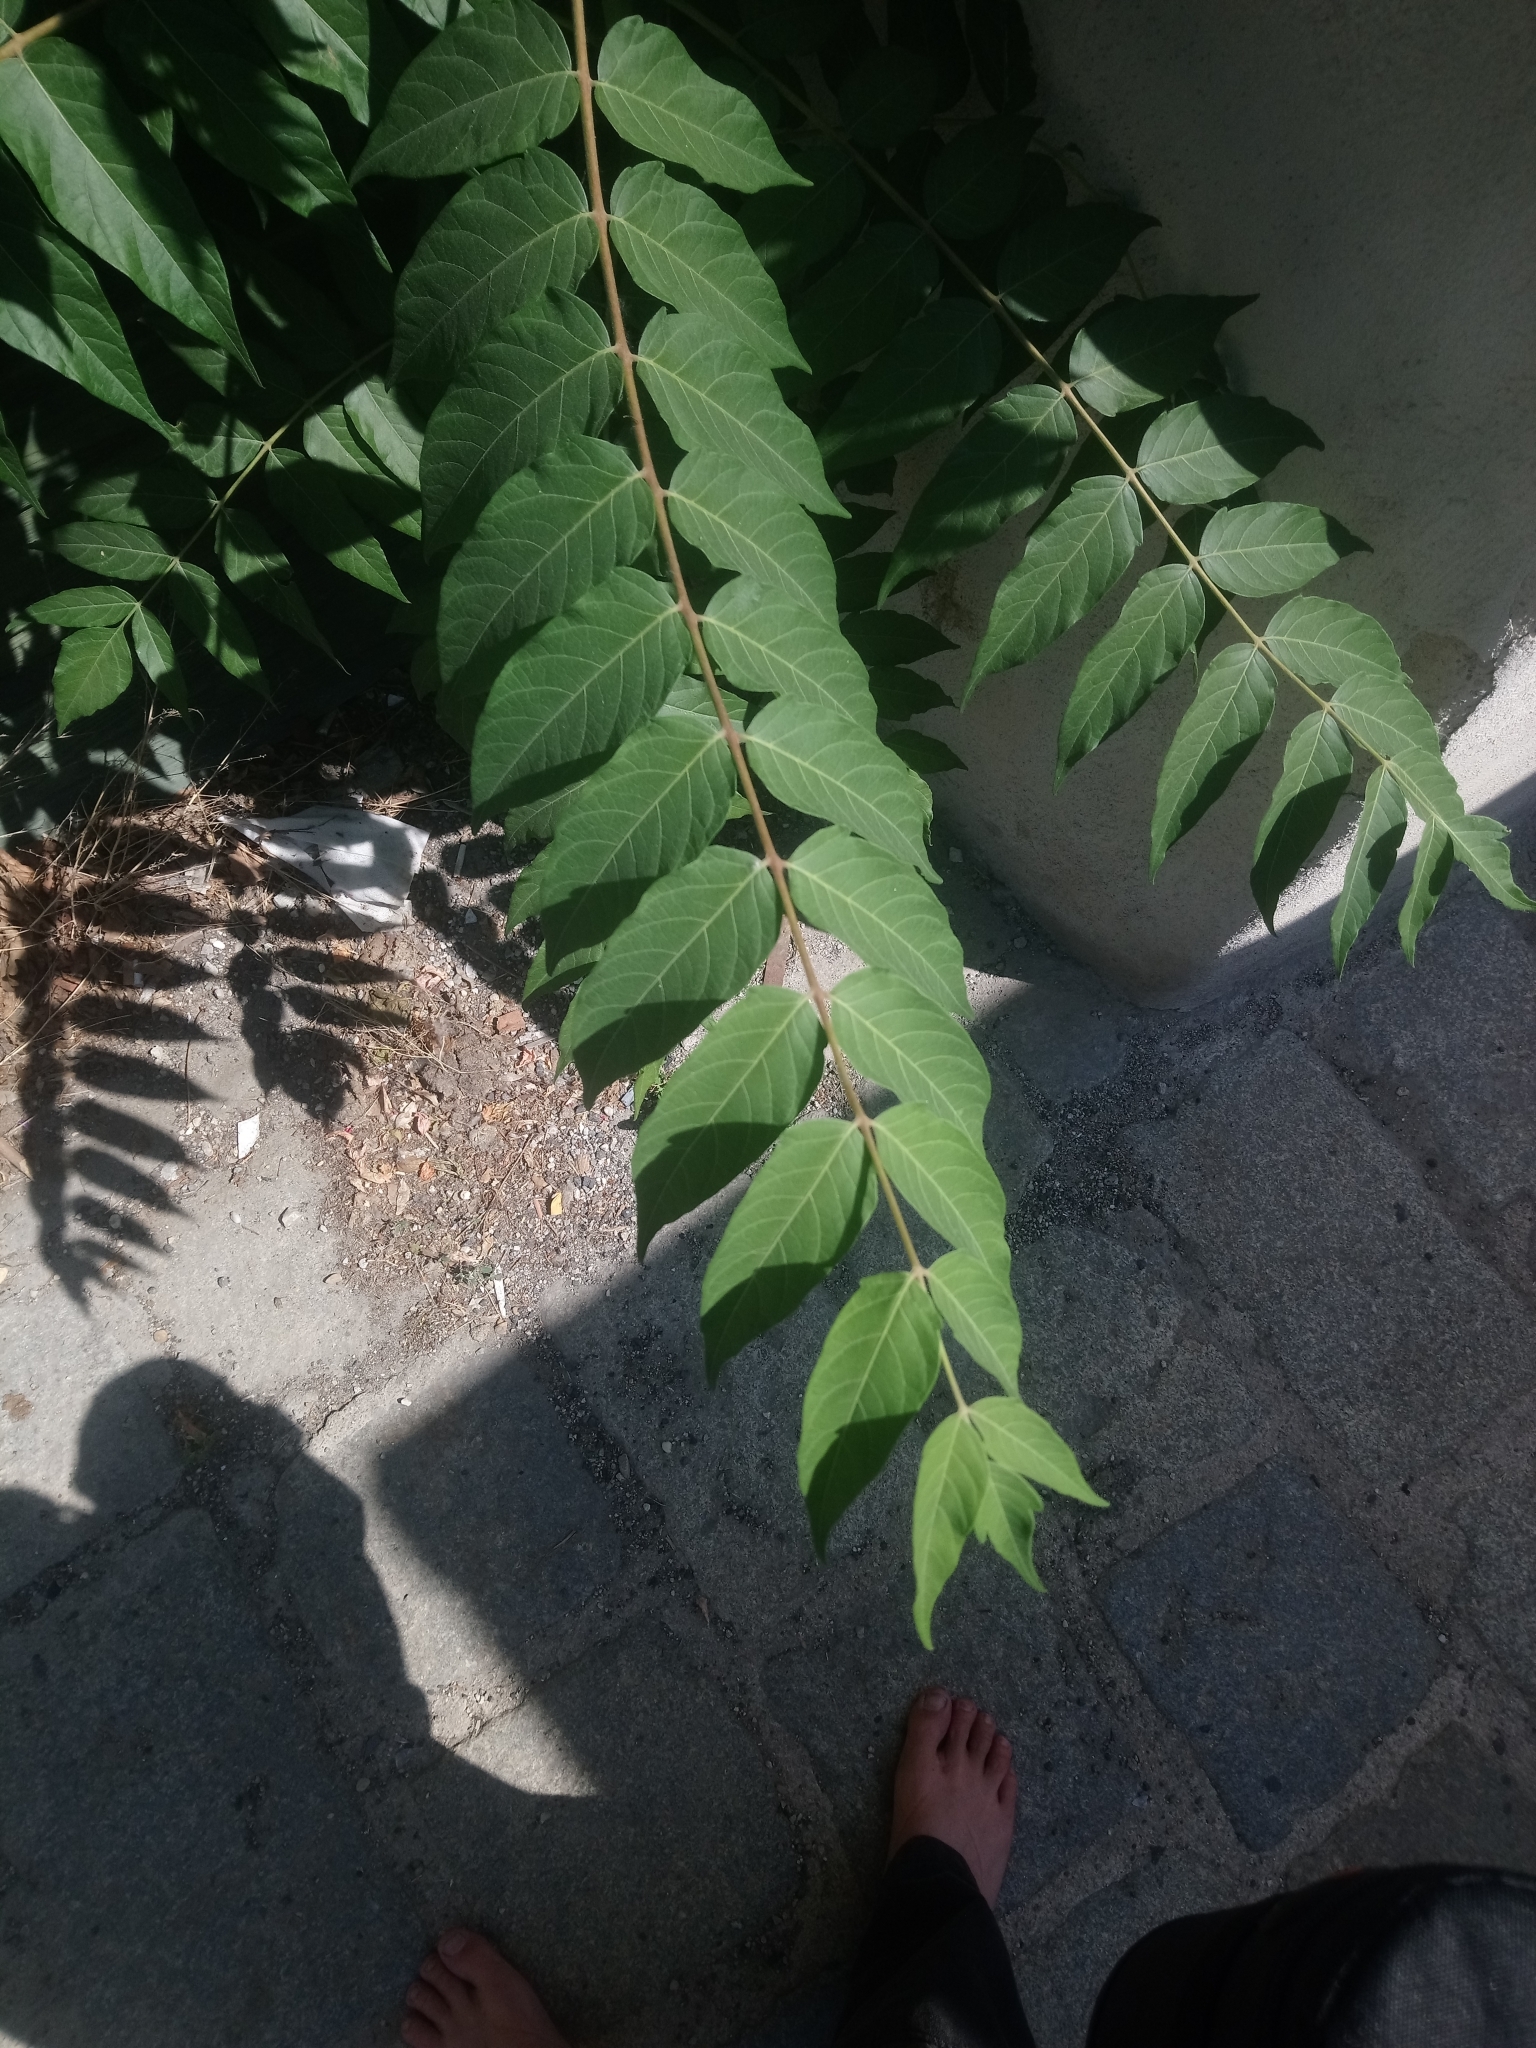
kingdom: Plantae
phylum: Tracheophyta
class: Magnoliopsida
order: Sapindales
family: Simaroubaceae
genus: Ailanthus
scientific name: Ailanthus altissima
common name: Tree-of-heaven
